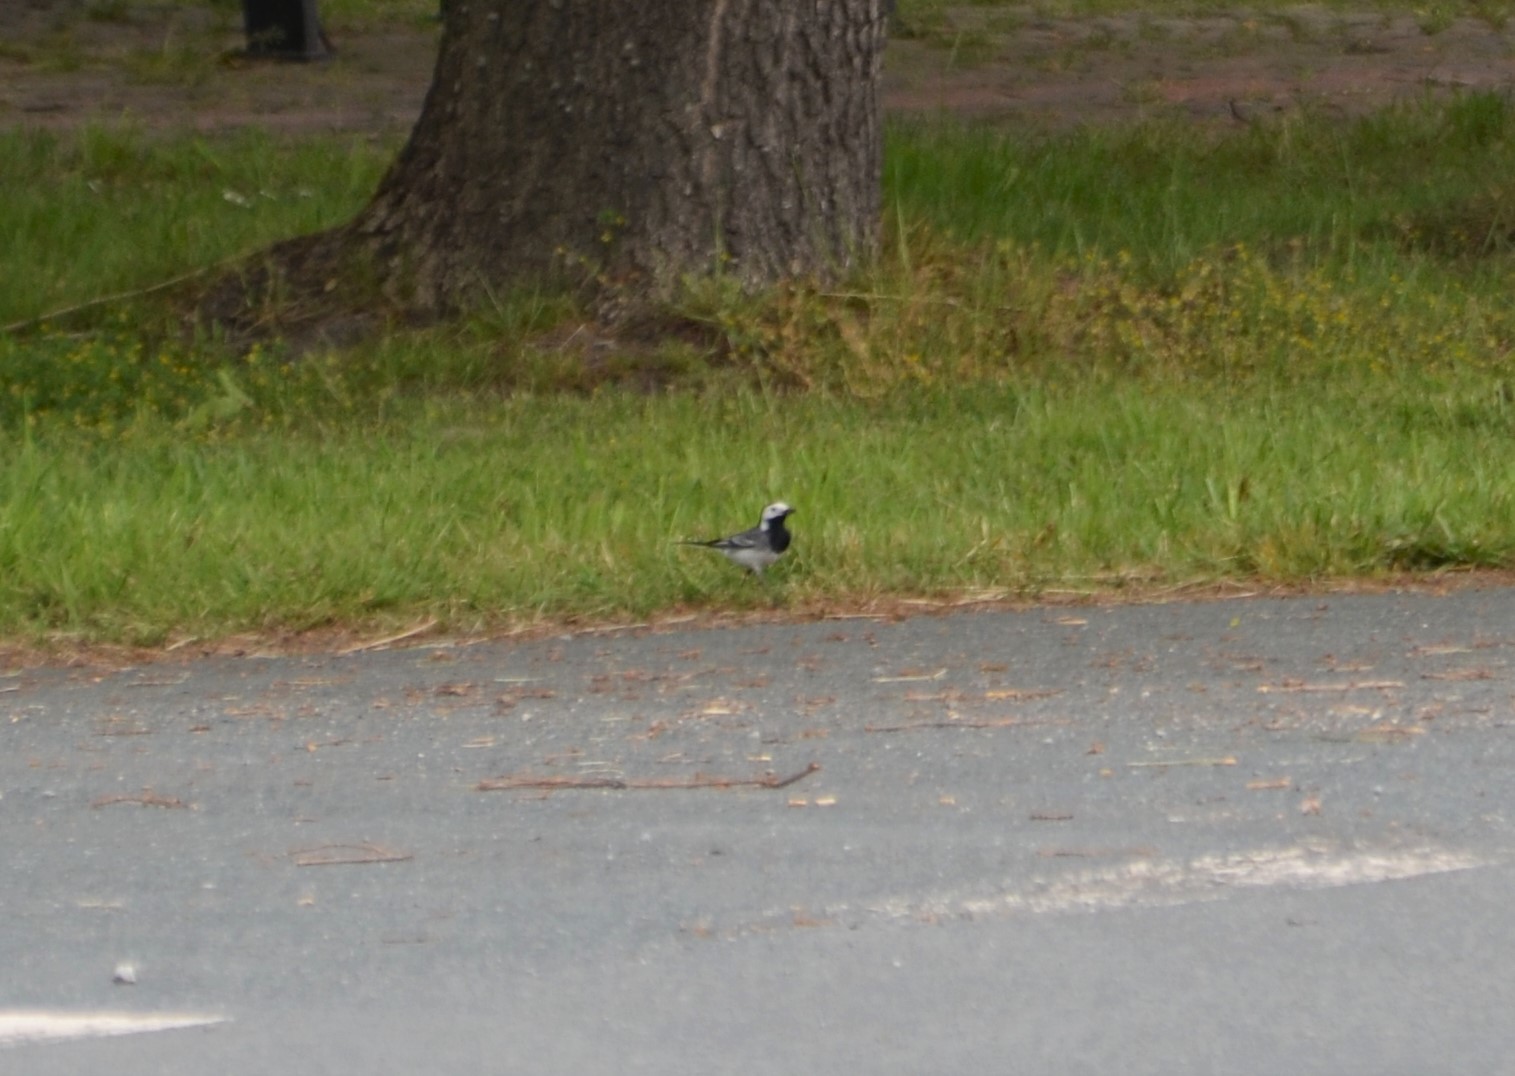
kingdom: Animalia
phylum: Chordata
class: Aves
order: Passeriformes
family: Motacillidae
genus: Motacilla
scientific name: Motacilla alba
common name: White wagtail
